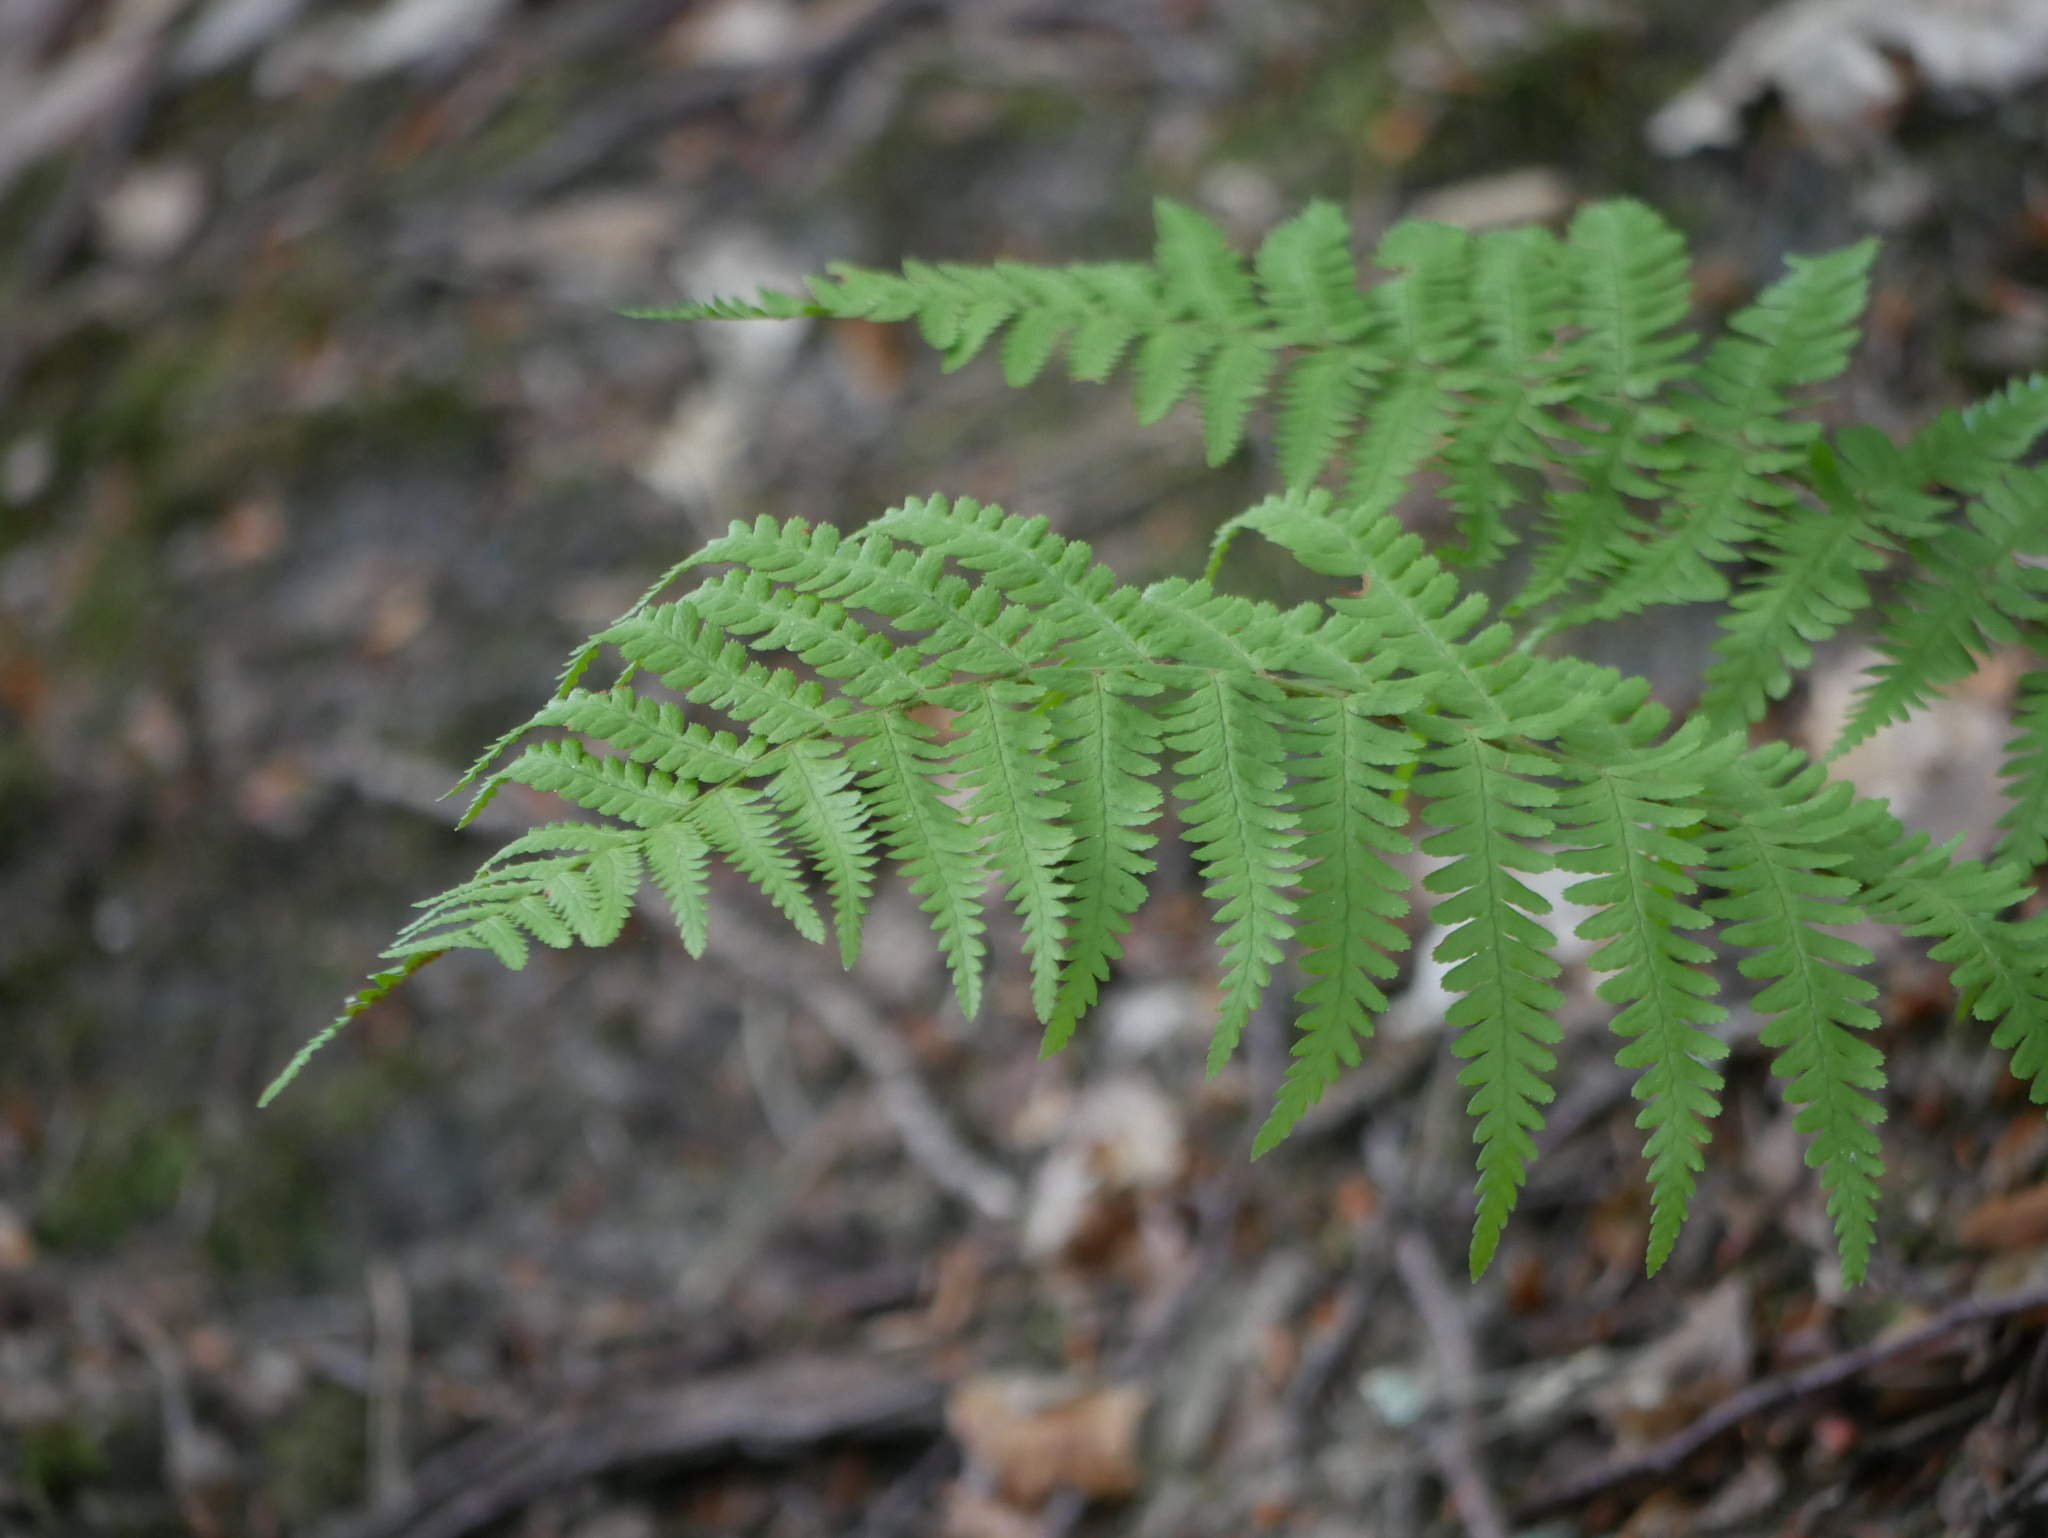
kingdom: Plantae
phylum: Tracheophyta
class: Polypodiopsida
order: Polypodiales
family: Dryopteridaceae
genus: Dryopteris
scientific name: Dryopteris filix-mas
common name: Male fern
